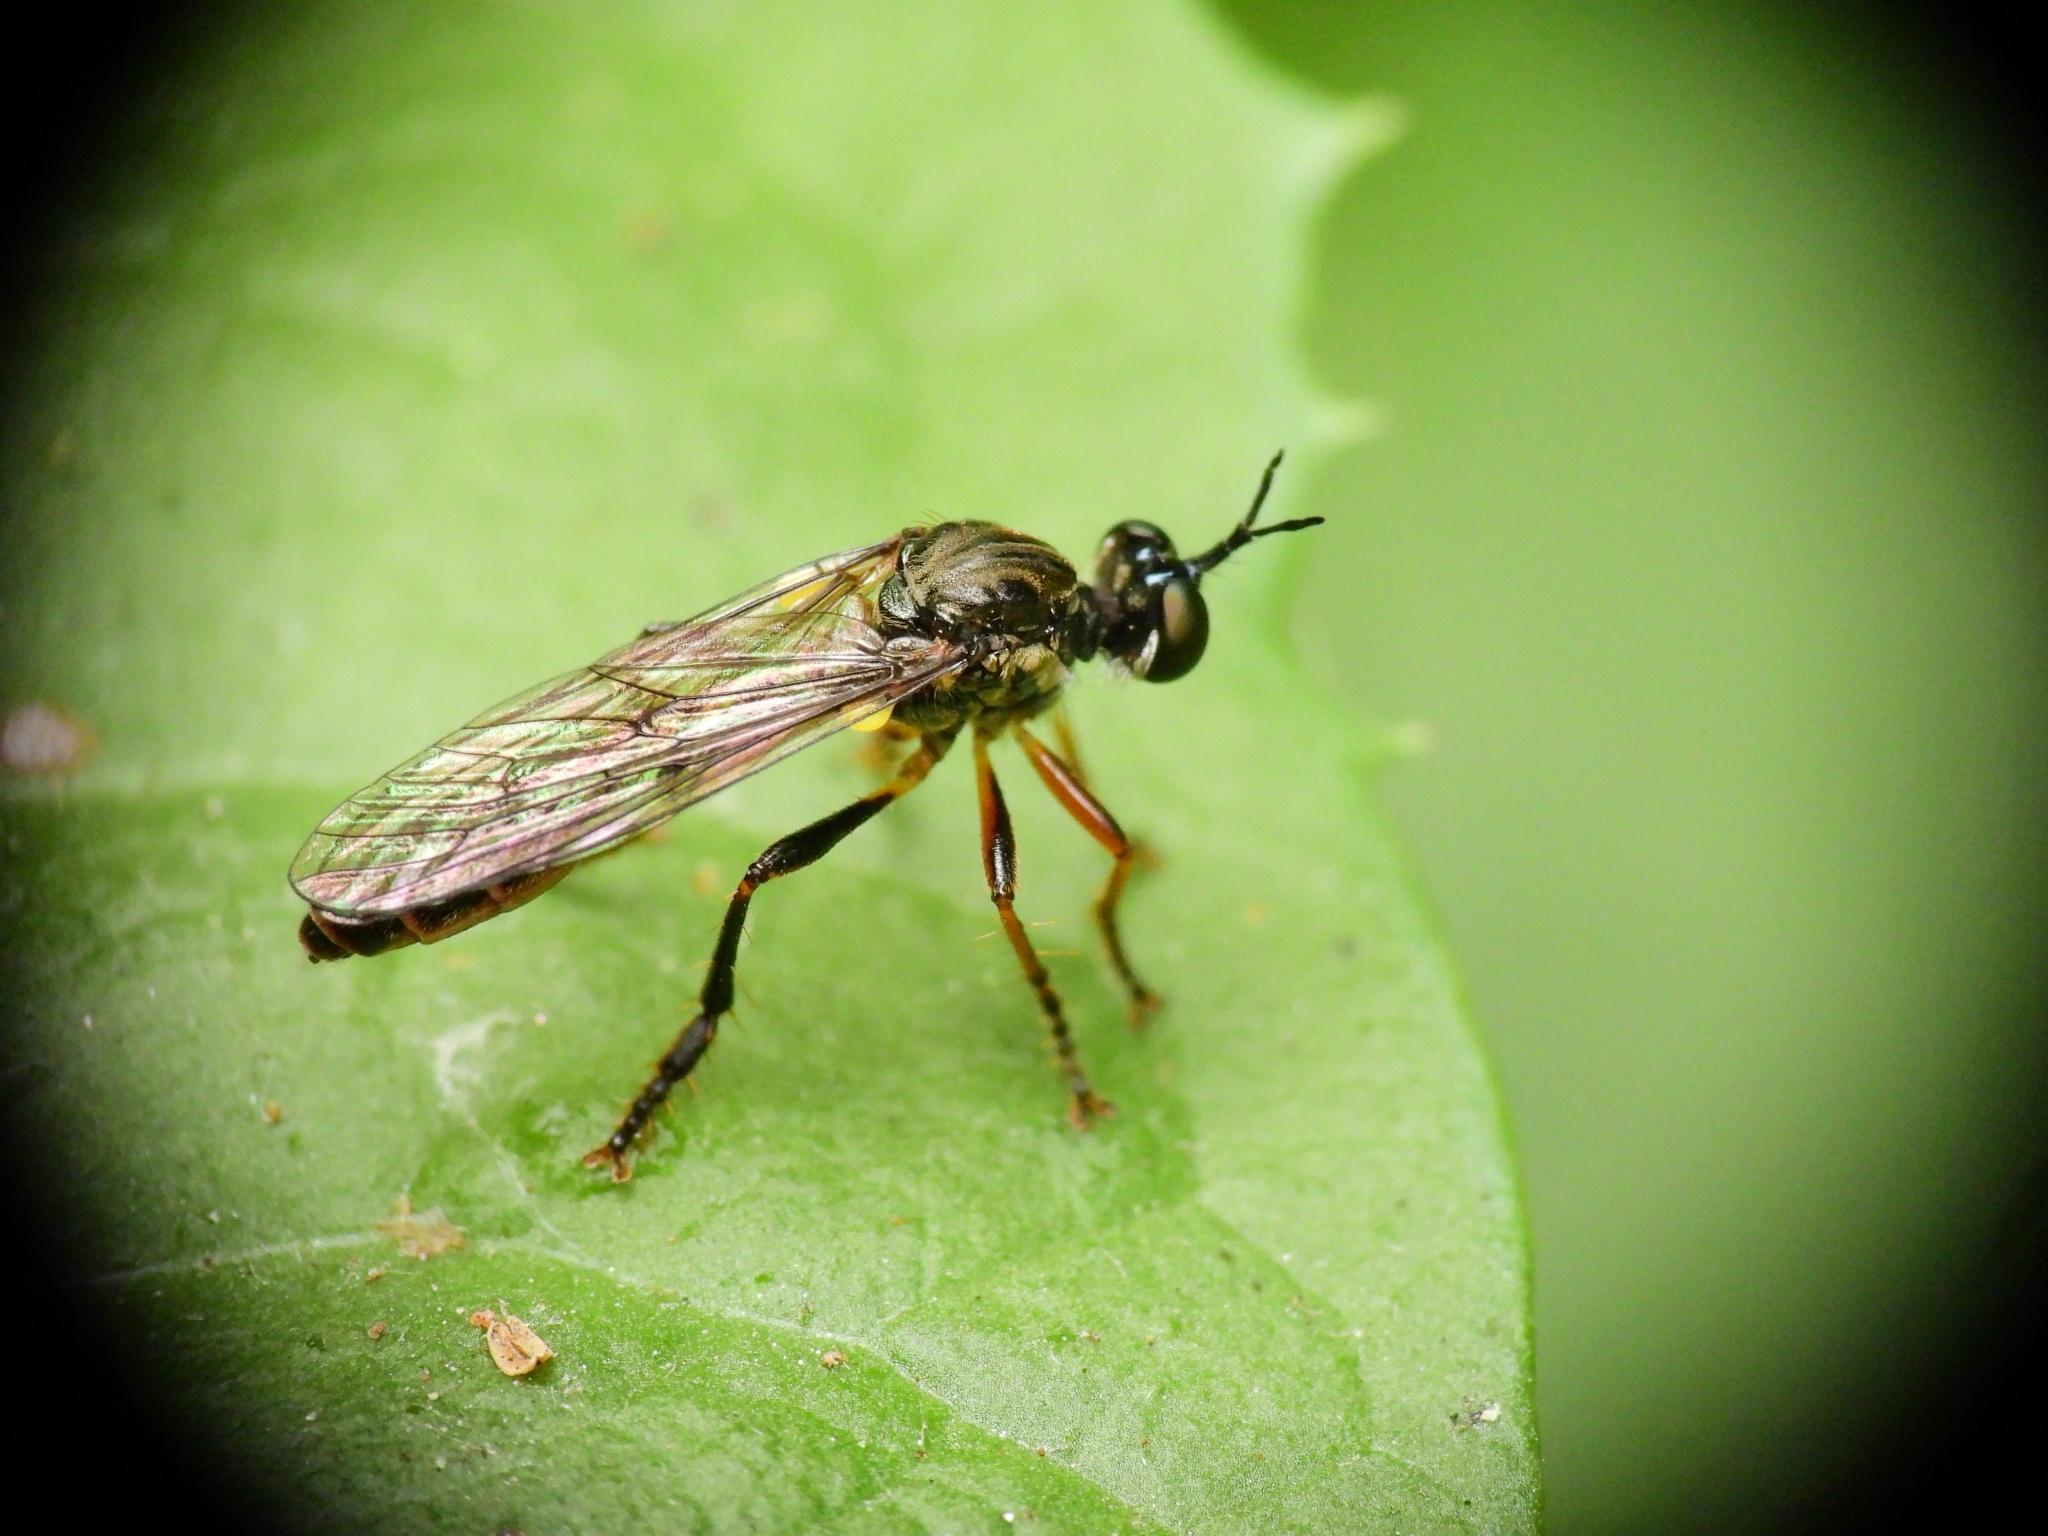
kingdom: Animalia
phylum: Arthropoda
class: Insecta
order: Diptera
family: Asilidae
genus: Dioctria
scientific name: Dioctria hyalipennis
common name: Stripe-legged robberfly
